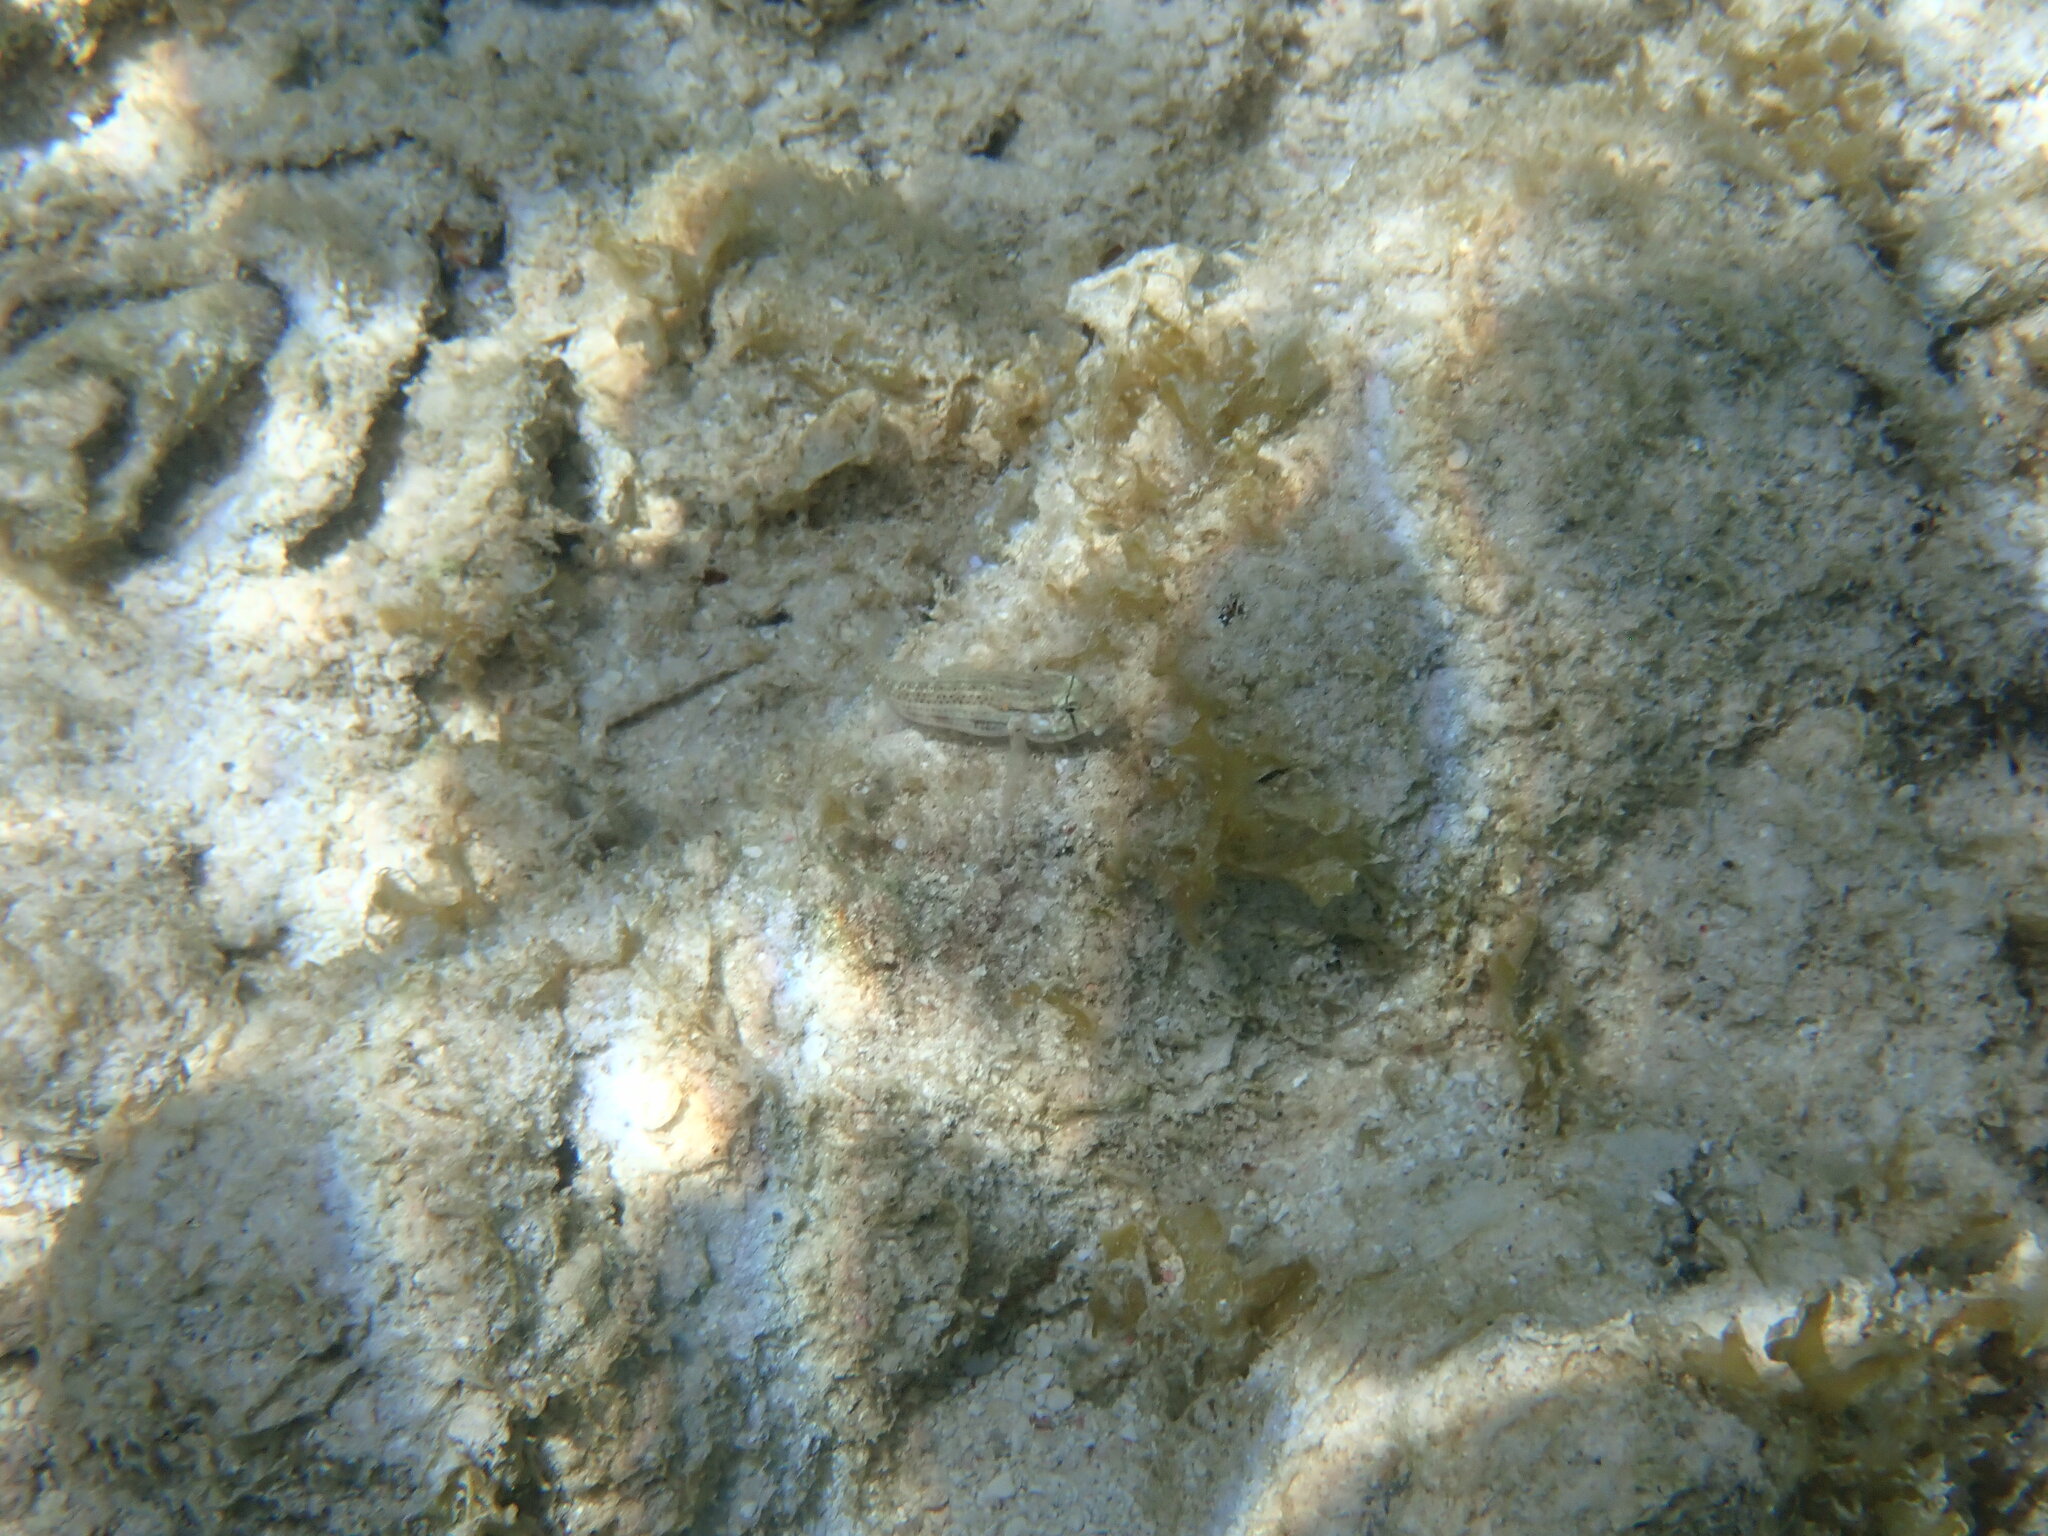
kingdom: Animalia
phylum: Chordata
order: Perciformes
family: Gobiidae
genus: Gnatholepis
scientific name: Gnatholepis thompsoni
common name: Goldspot goby
